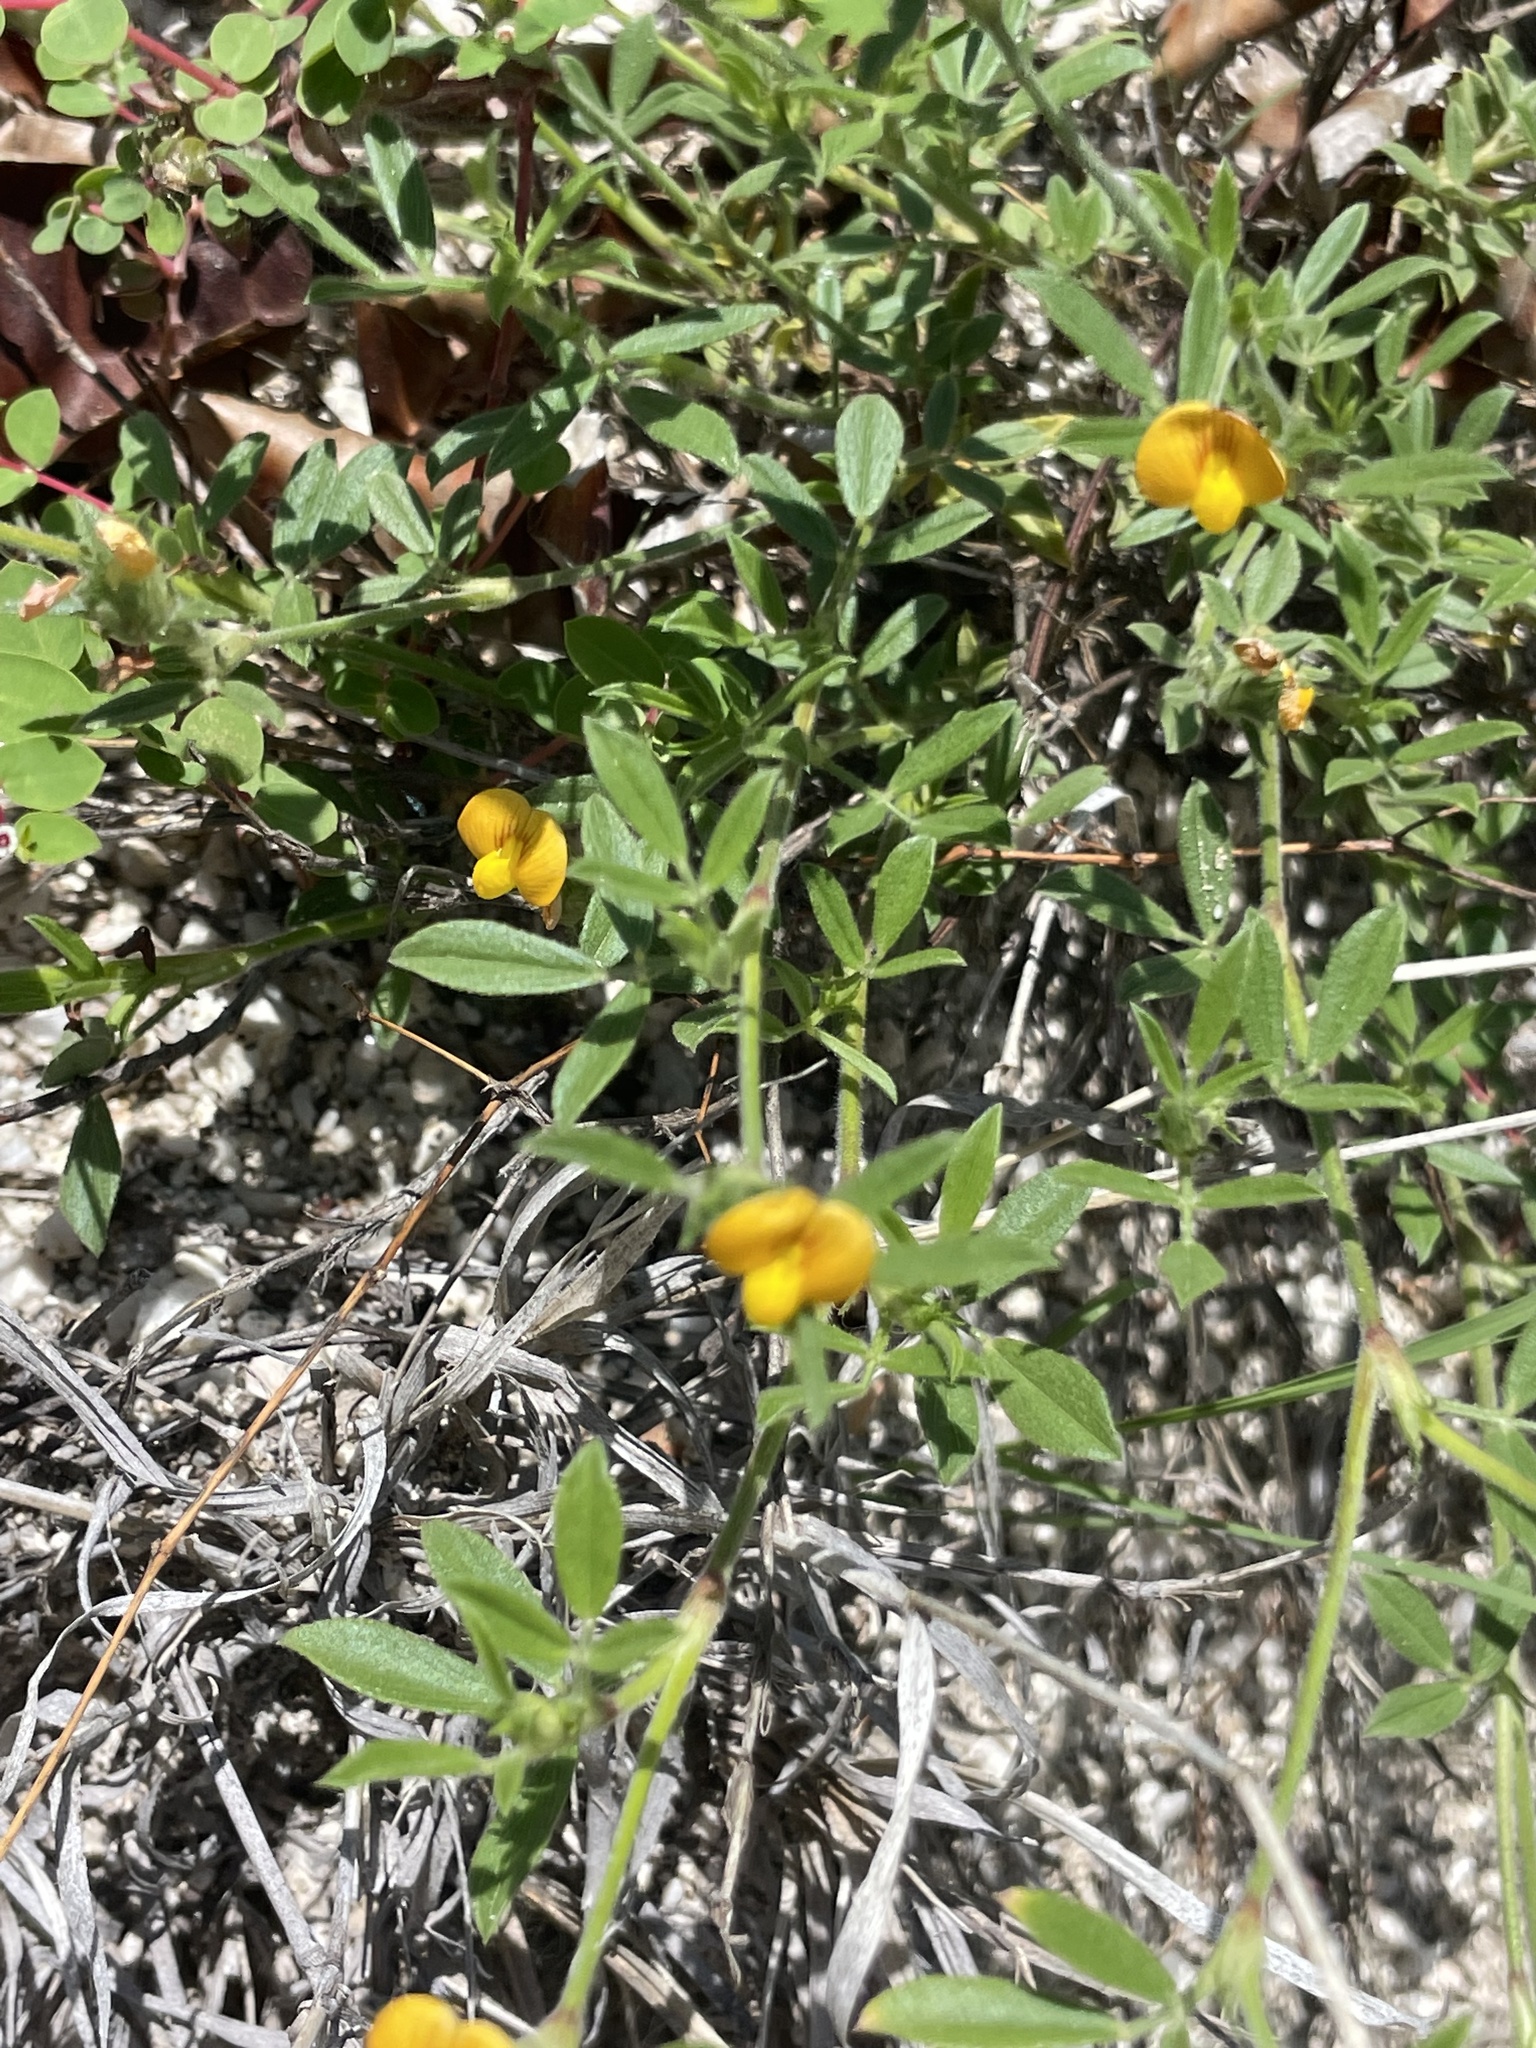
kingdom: Plantae
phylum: Tracheophyta
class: Magnoliopsida
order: Fabales
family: Fabaceae
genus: Stylosanthes
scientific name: Stylosanthes viscosa
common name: Viscid pencil-flower
